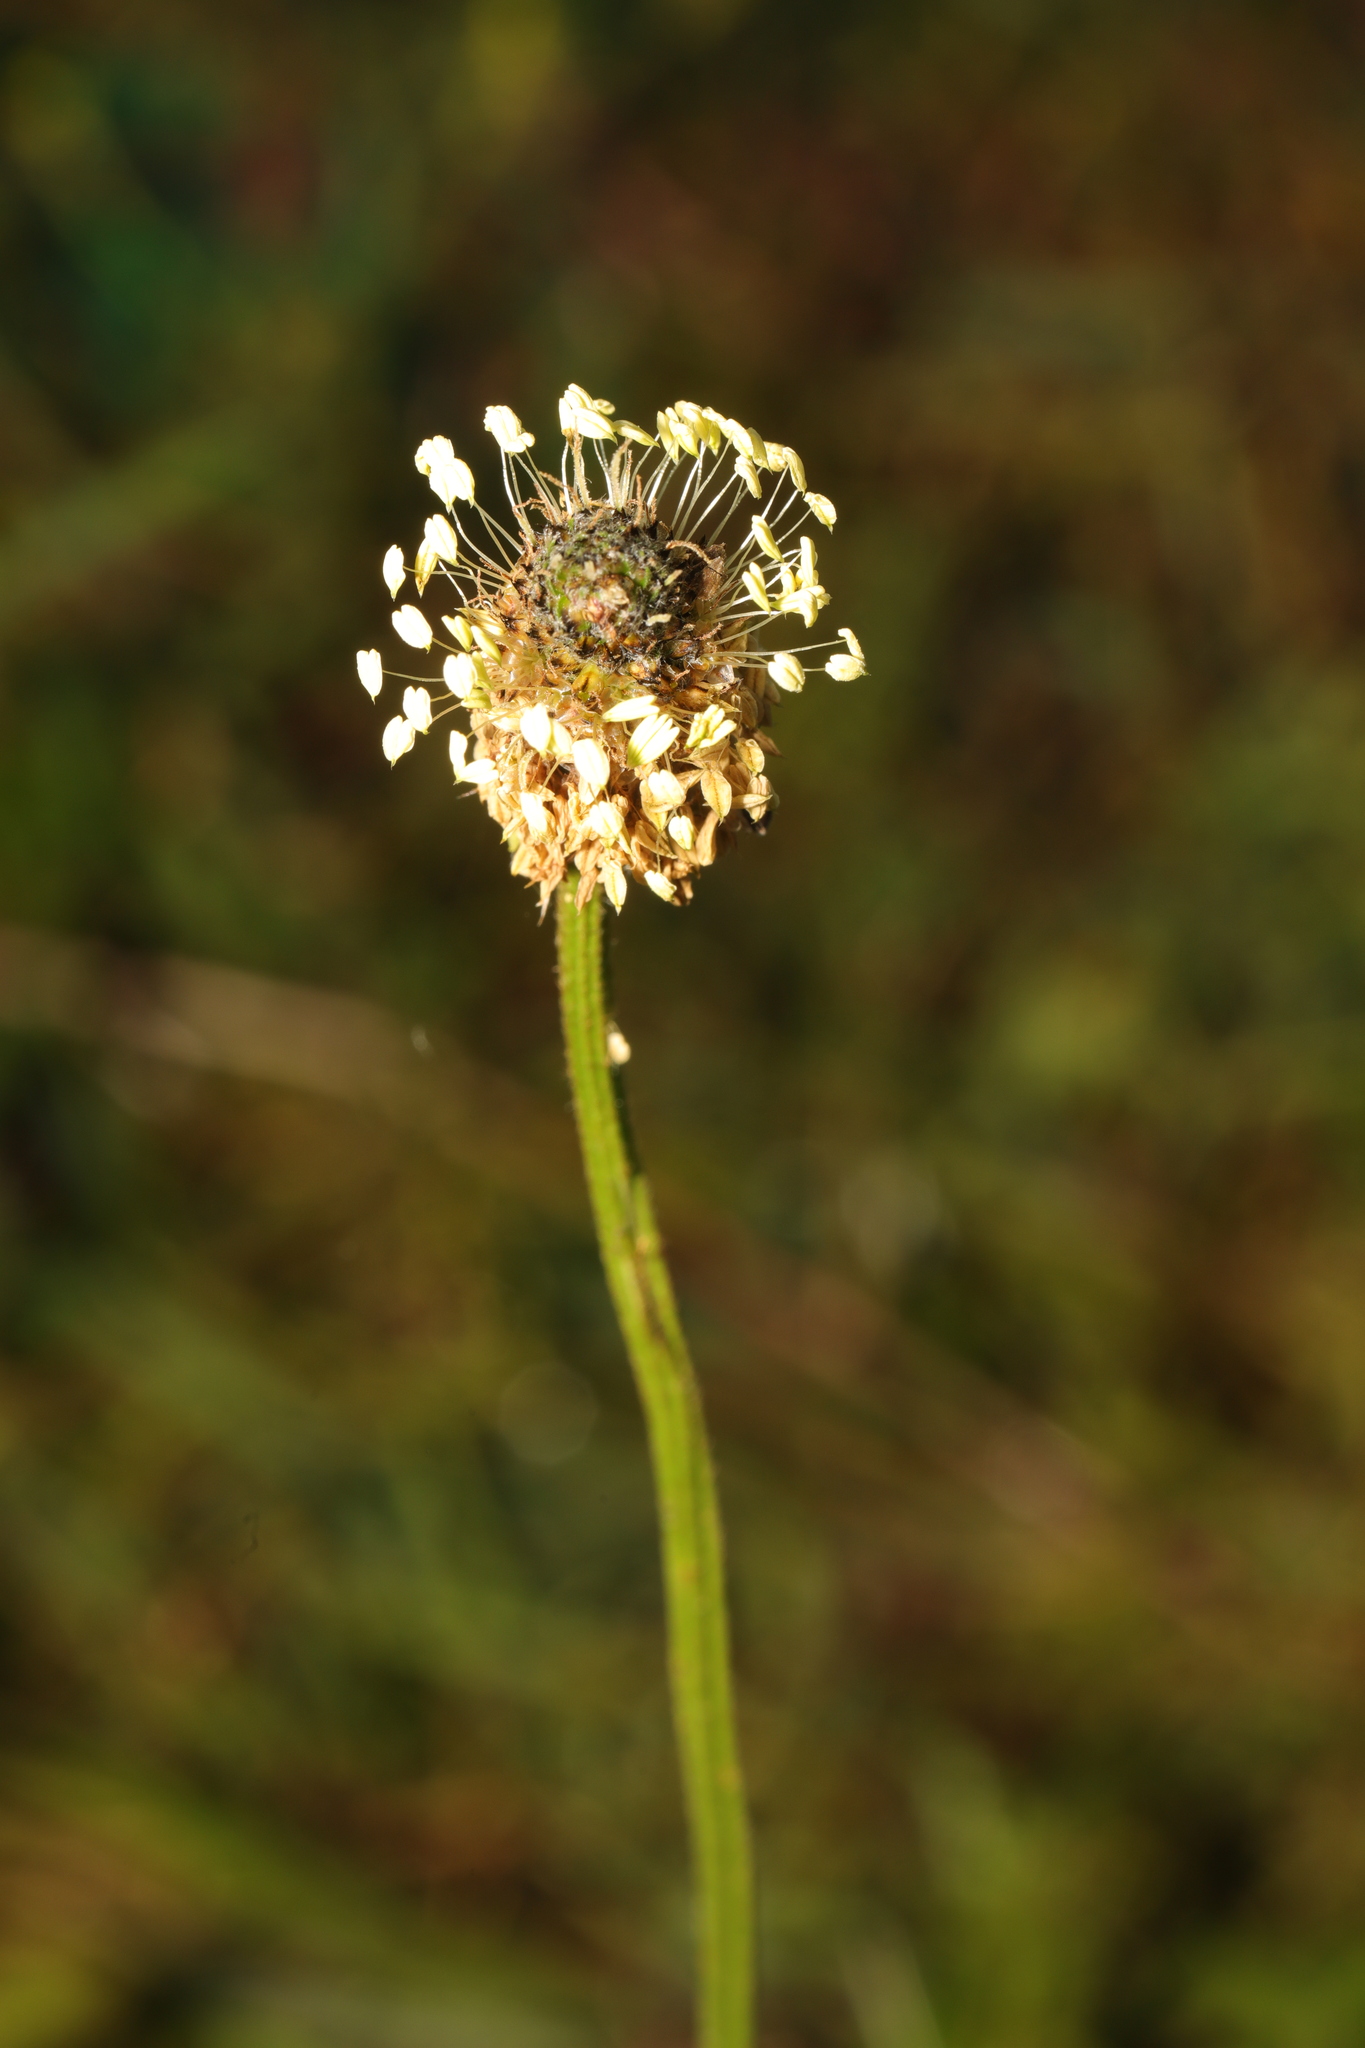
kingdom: Plantae
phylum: Tracheophyta
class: Magnoliopsida
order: Lamiales
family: Plantaginaceae
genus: Plantago
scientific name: Plantago lanceolata
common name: Ribwort plantain
